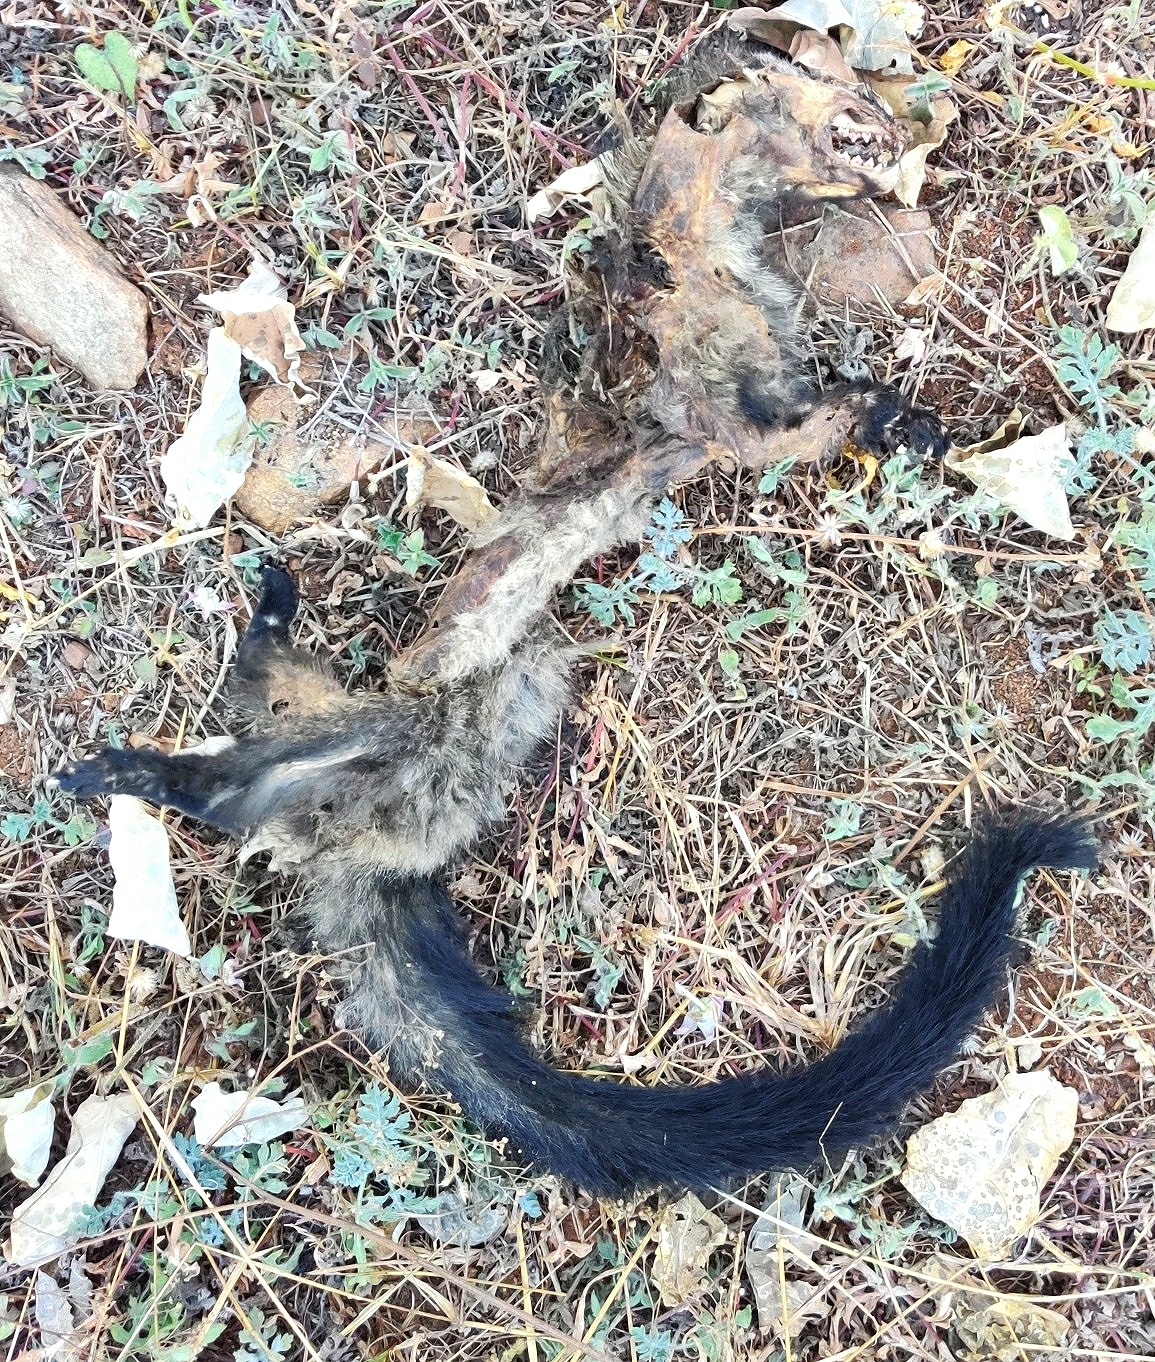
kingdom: Animalia
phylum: Chordata
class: Mammalia
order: Carnivora
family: Viverridae
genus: Paradoxurus
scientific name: Paradoxurus hermaphroditus
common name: Common palm civet
